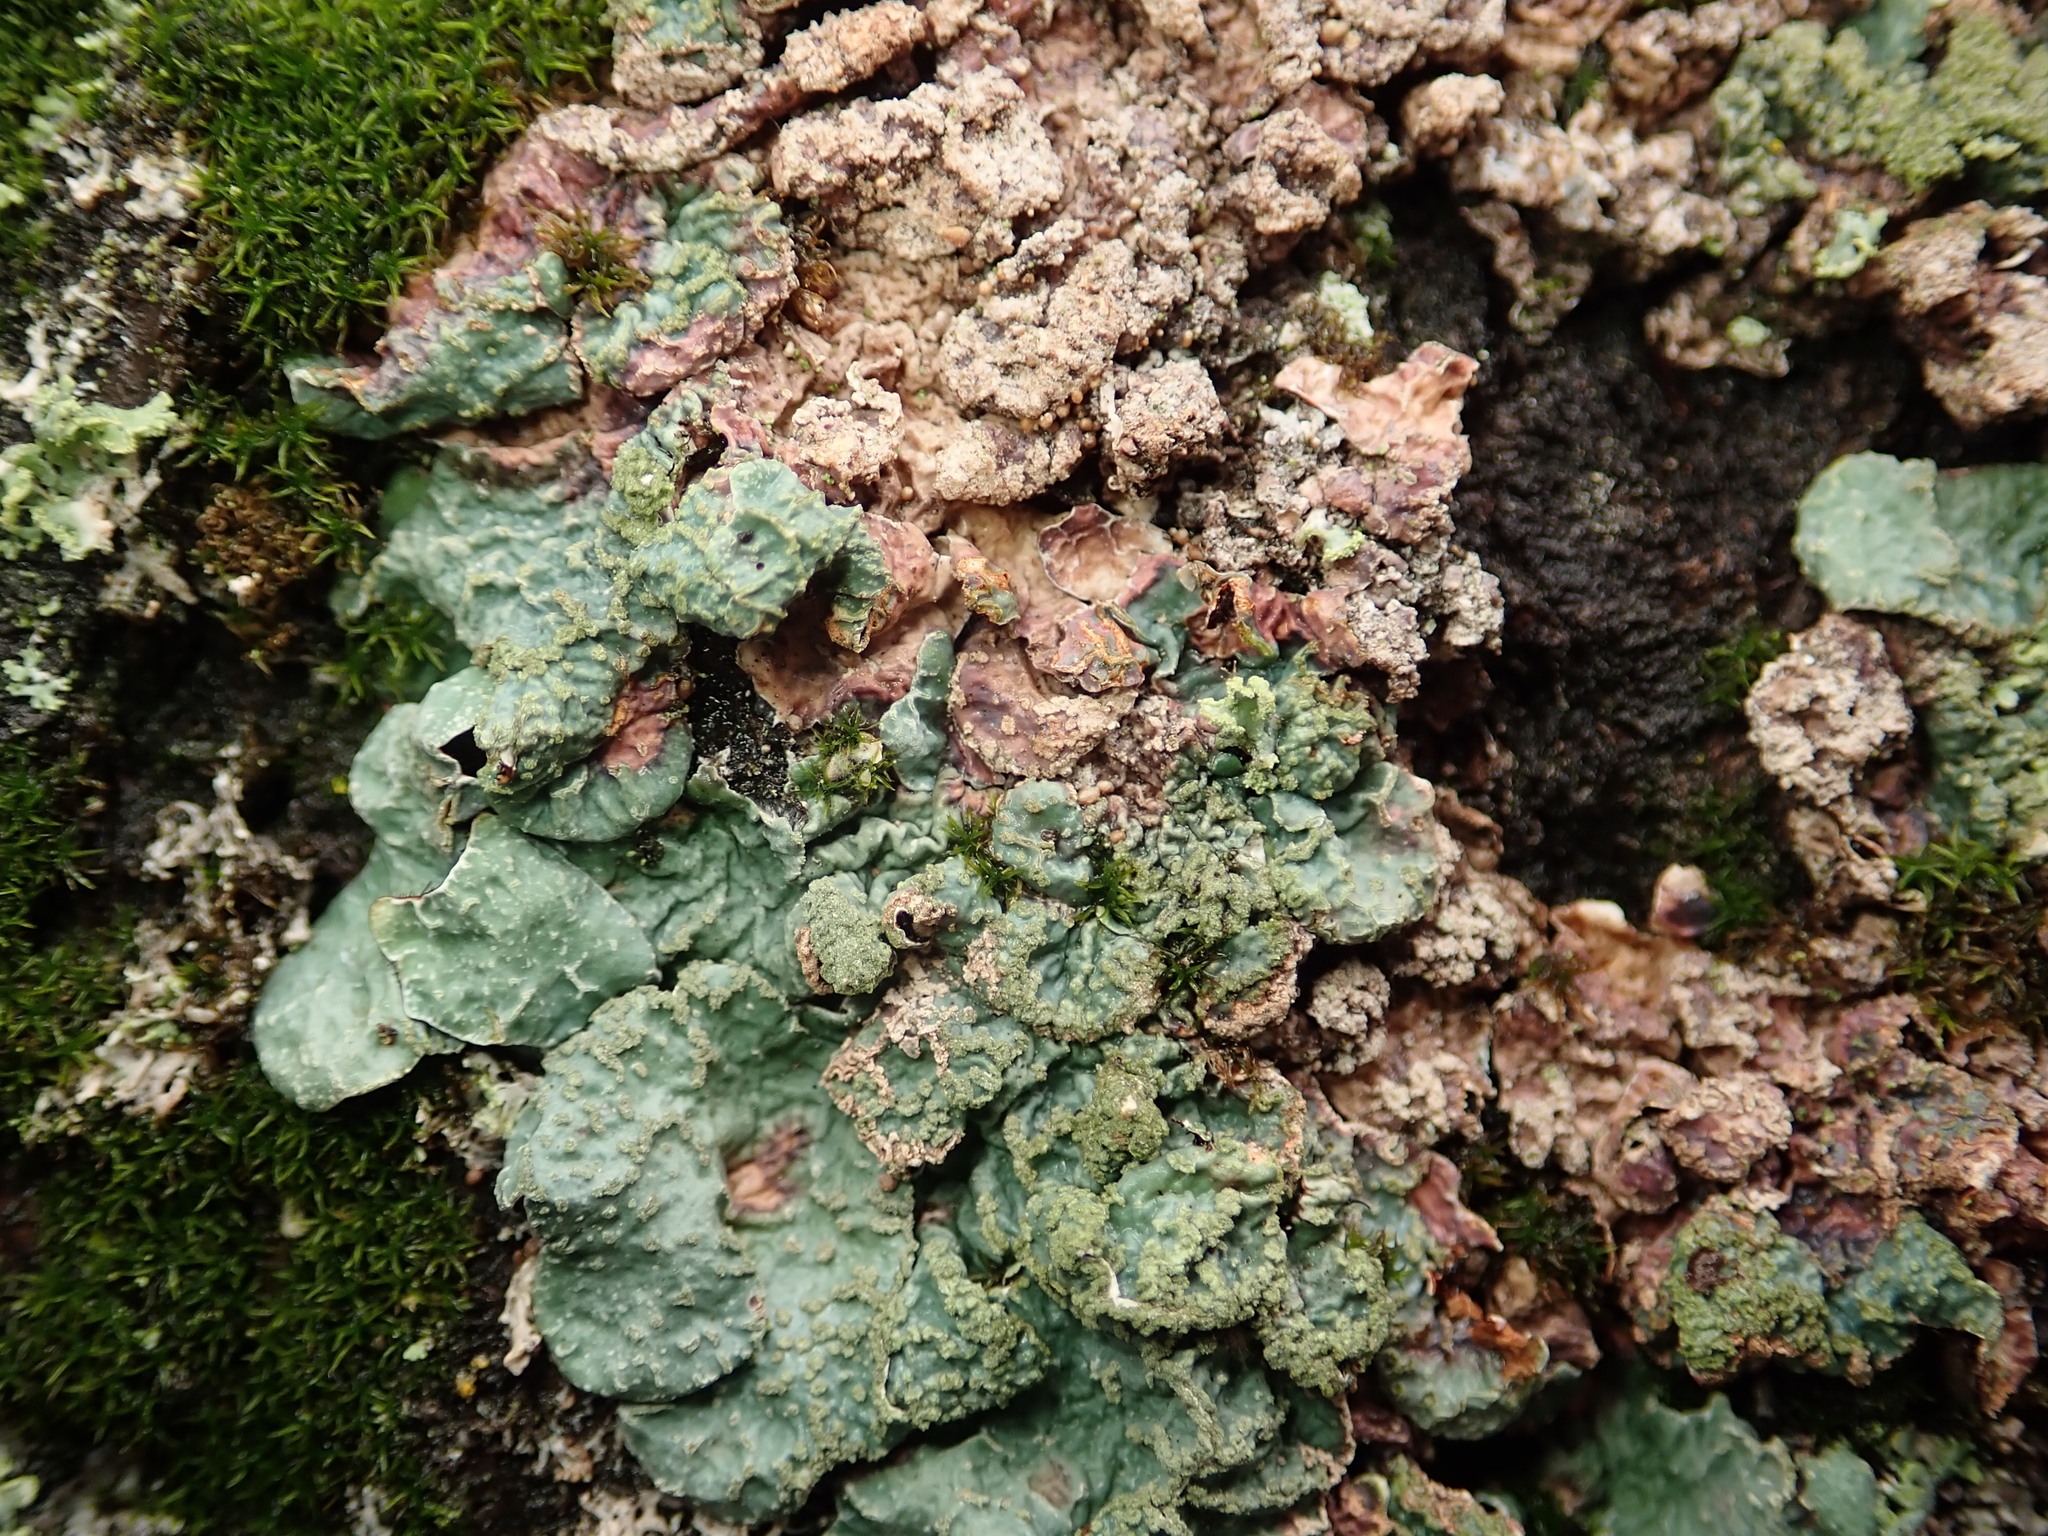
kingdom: Fungi
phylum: Ascomycota
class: Lecanoromycetes
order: Lecanorales
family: Parmeliaceae
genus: Parmelia
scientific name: Parmelia sulcata
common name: Netted shield lichen
